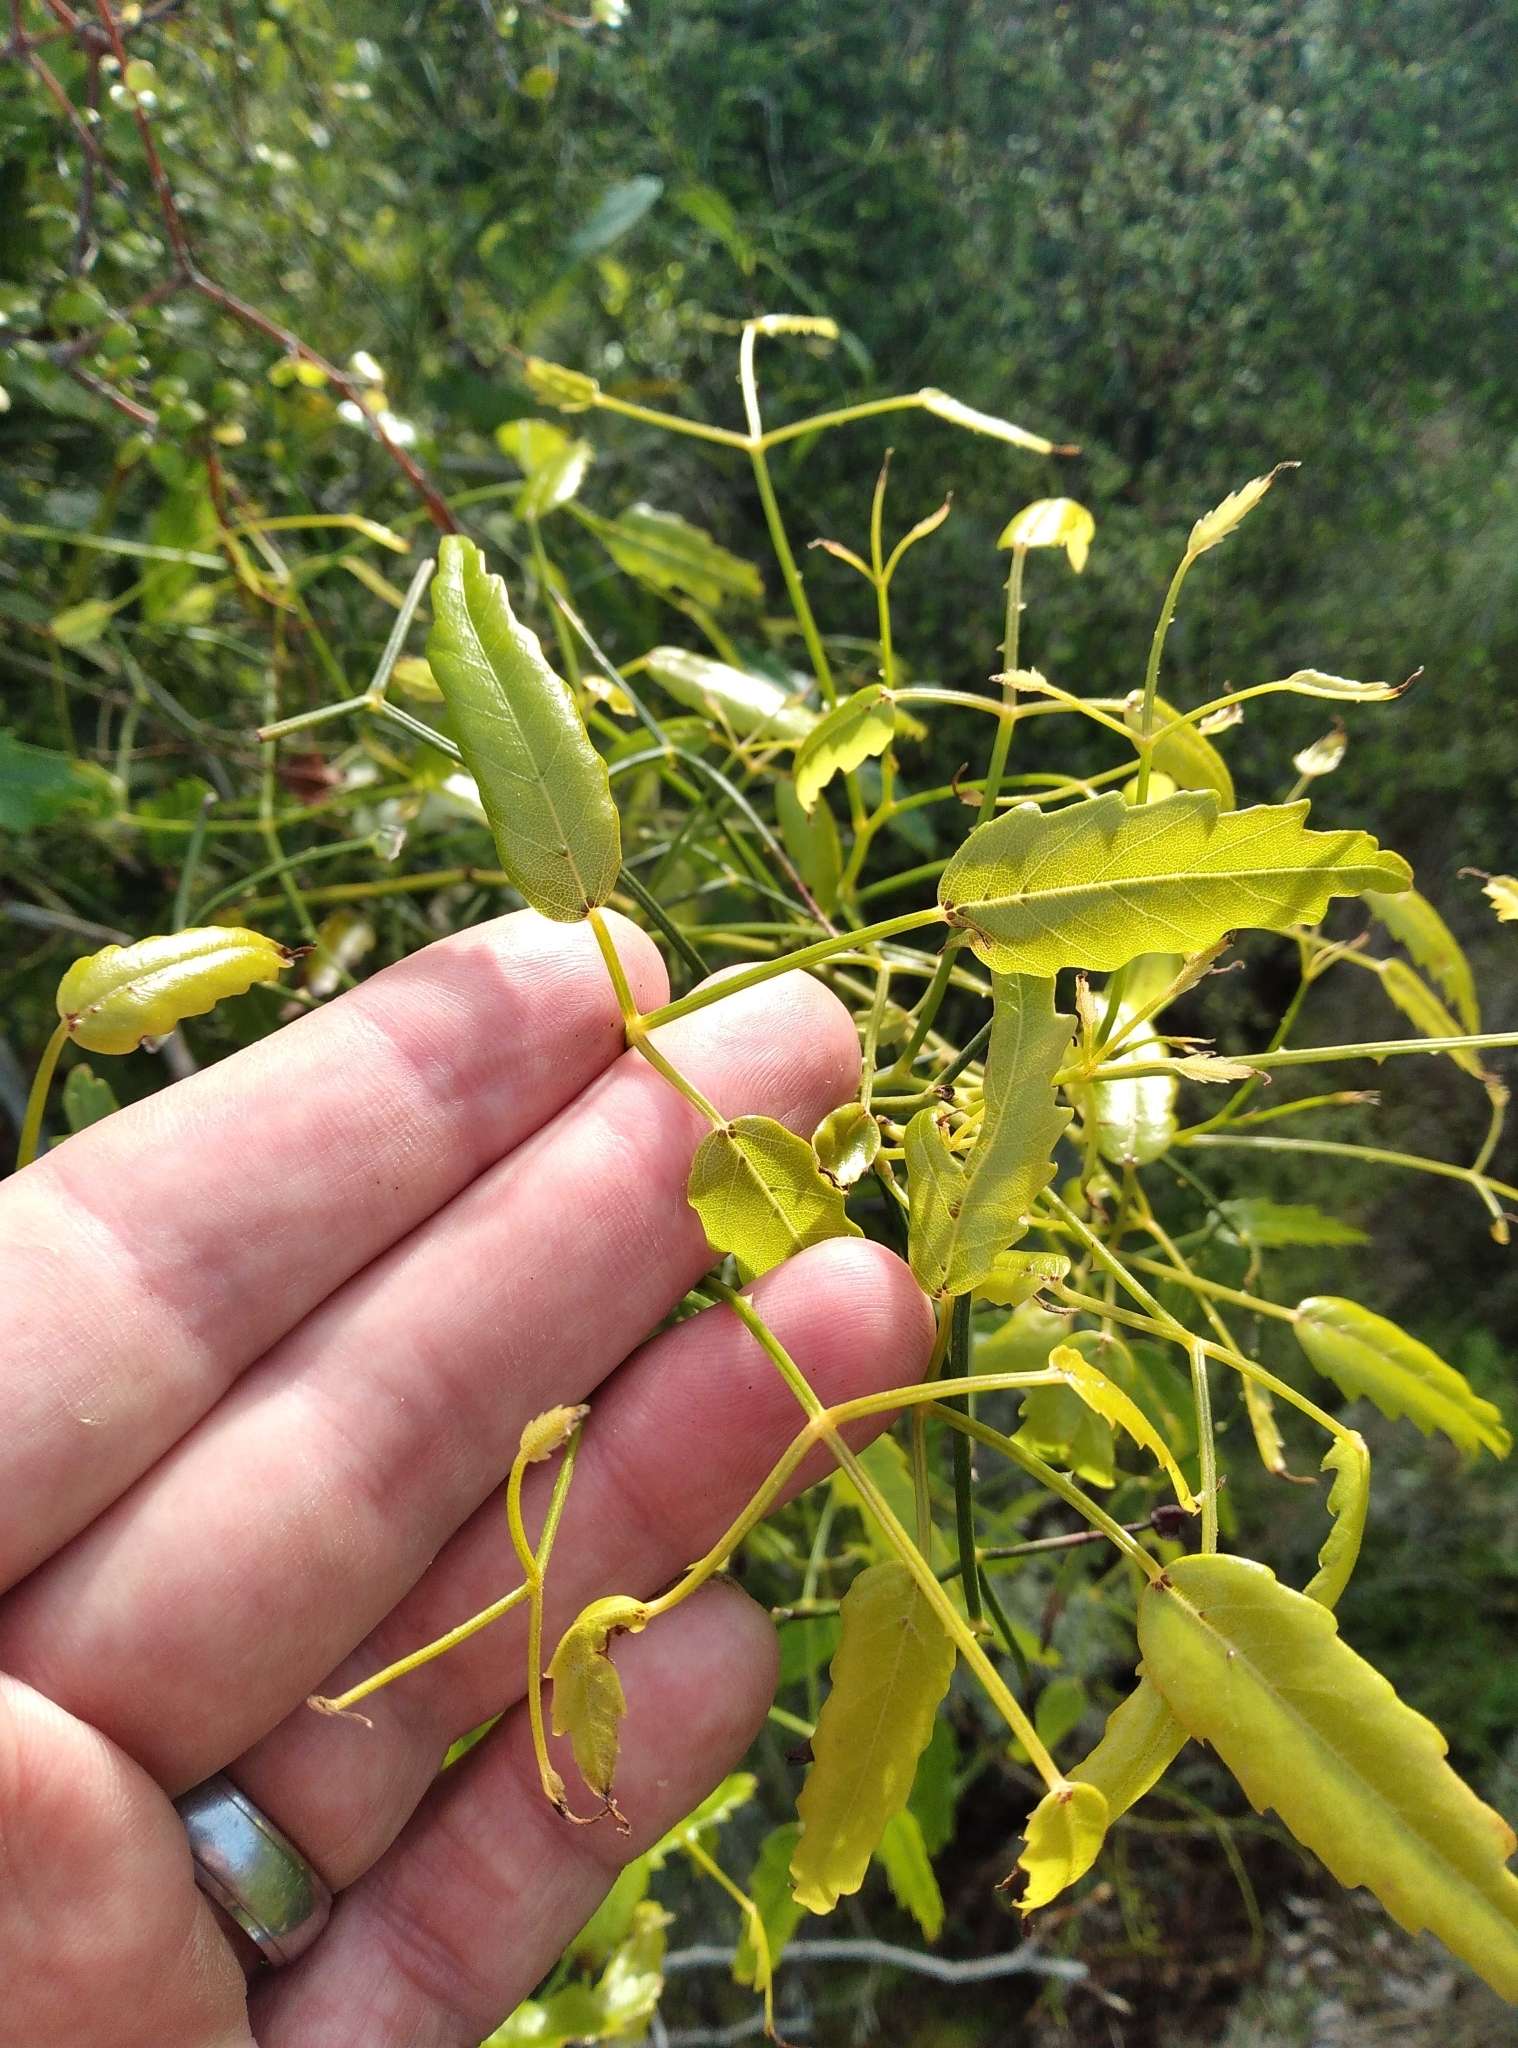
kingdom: Plantae
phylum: Tracheophyta
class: Magnoliopsida
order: Rosales
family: Rosaceae
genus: Rubus
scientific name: Rubus schmidelioides
